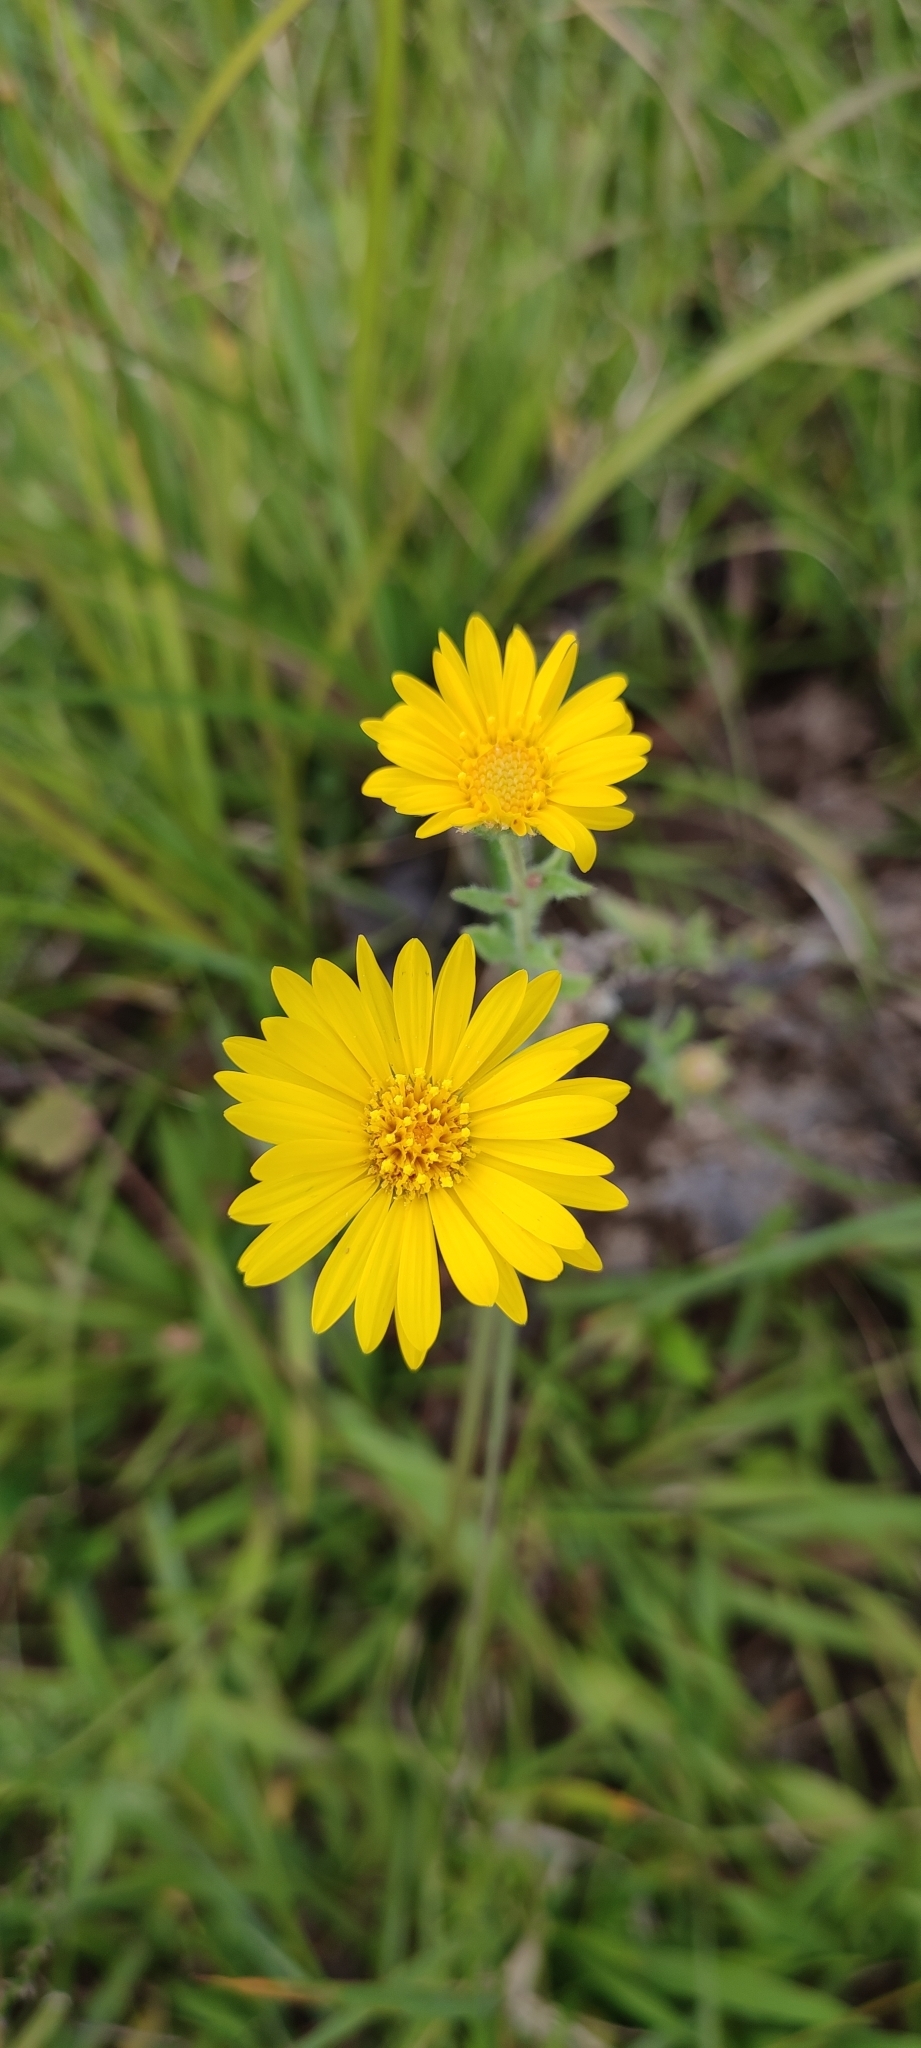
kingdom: Plantae
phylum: Tracheophyta
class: Magnoliopsida
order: Asterales
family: Asteraceae
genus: Heterotheca
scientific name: Heterotheca inuloides
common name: False arnica
